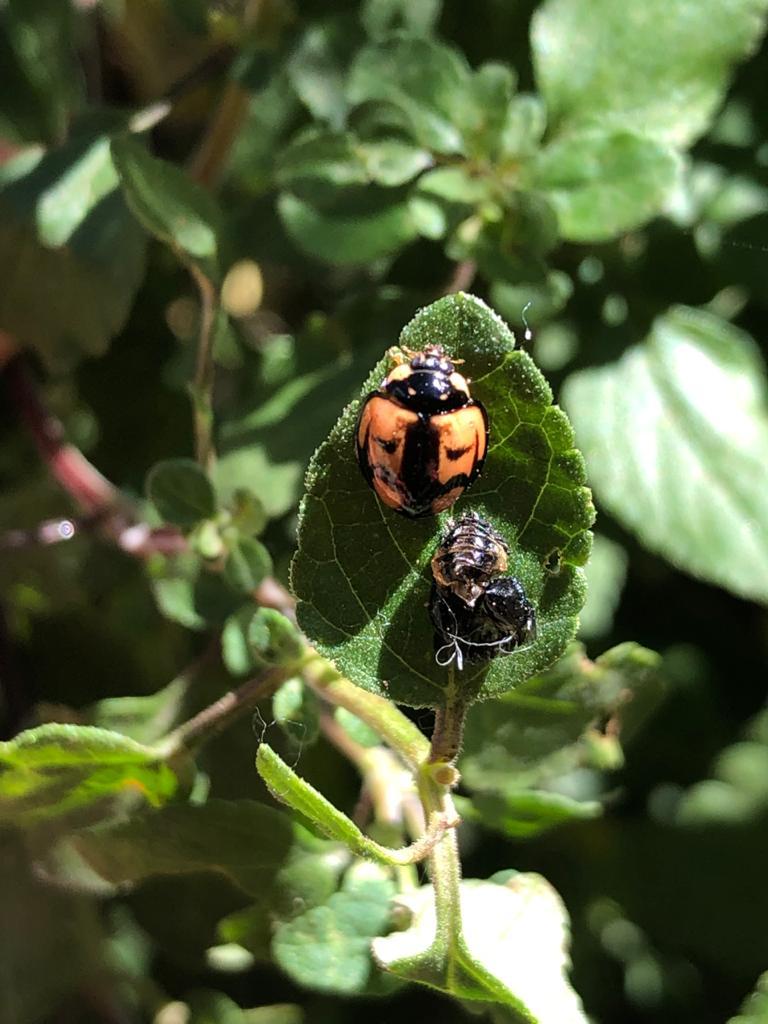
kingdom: Animalia
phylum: Arthropoda
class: Insecta
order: Coleoptera
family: Coccinellidae
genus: Cheilomenes
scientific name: Cheilomenes sexmaculata
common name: Ladybird beetle
